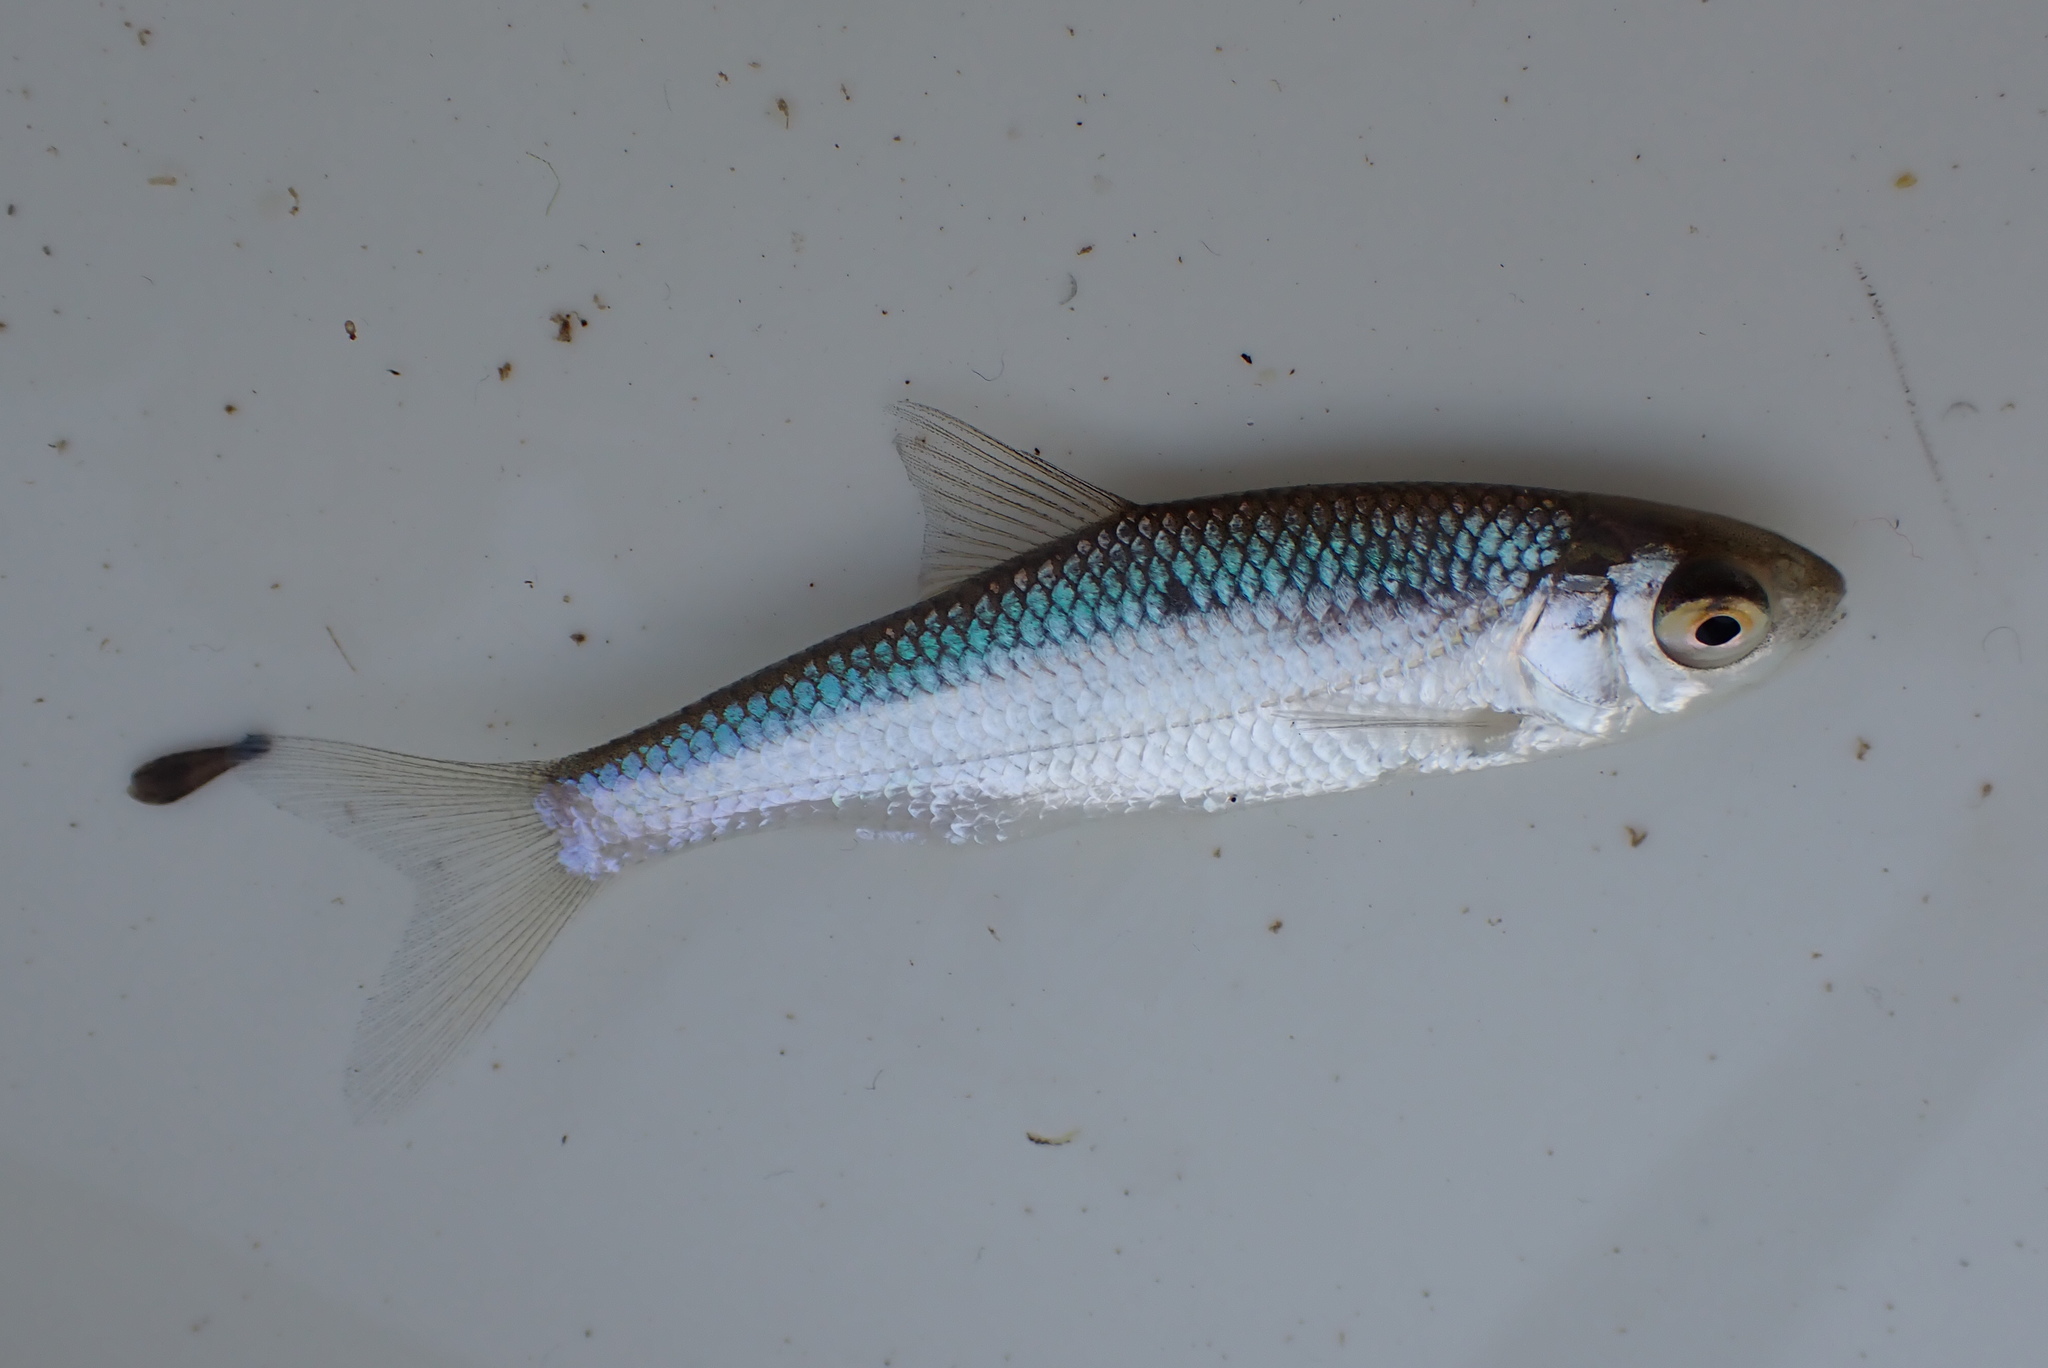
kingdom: Animalia
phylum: Chordata
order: Cypriniformes
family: Cyprinidae
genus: Rutilus
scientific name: Rutilus rutilus
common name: Roach
